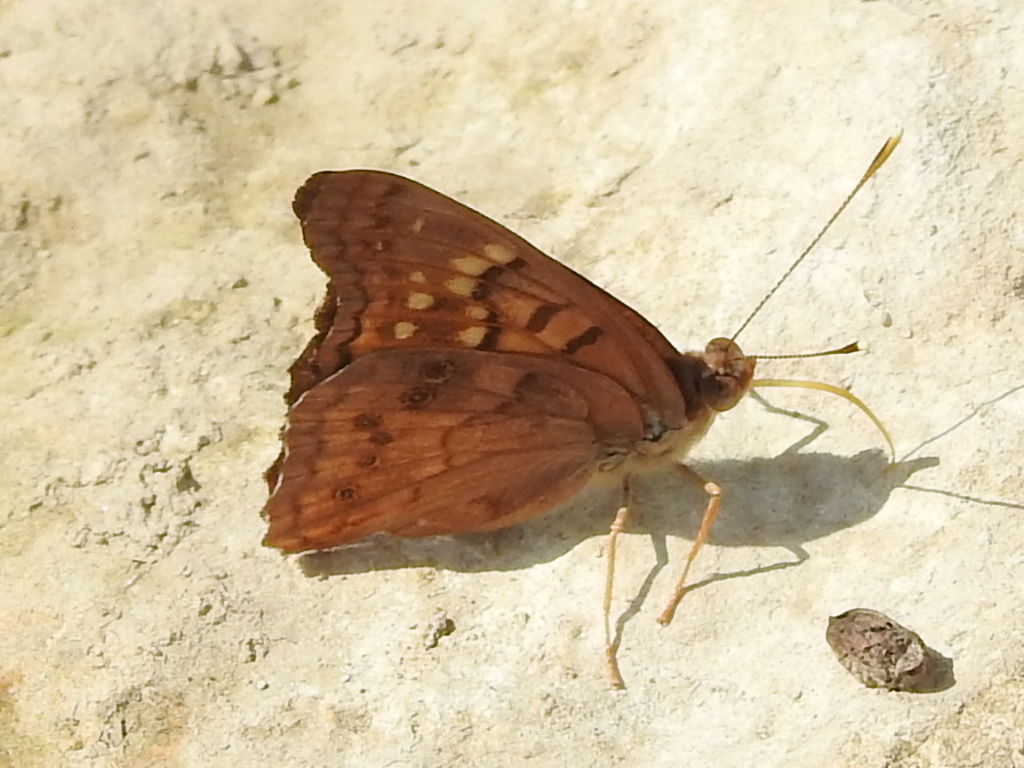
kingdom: Animalia
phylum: Arthropoda
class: Insecta
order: Lepidoptera
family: Nymphalidae
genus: Asterocampa
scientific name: Asterocampa clyton
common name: Tawny emperor
